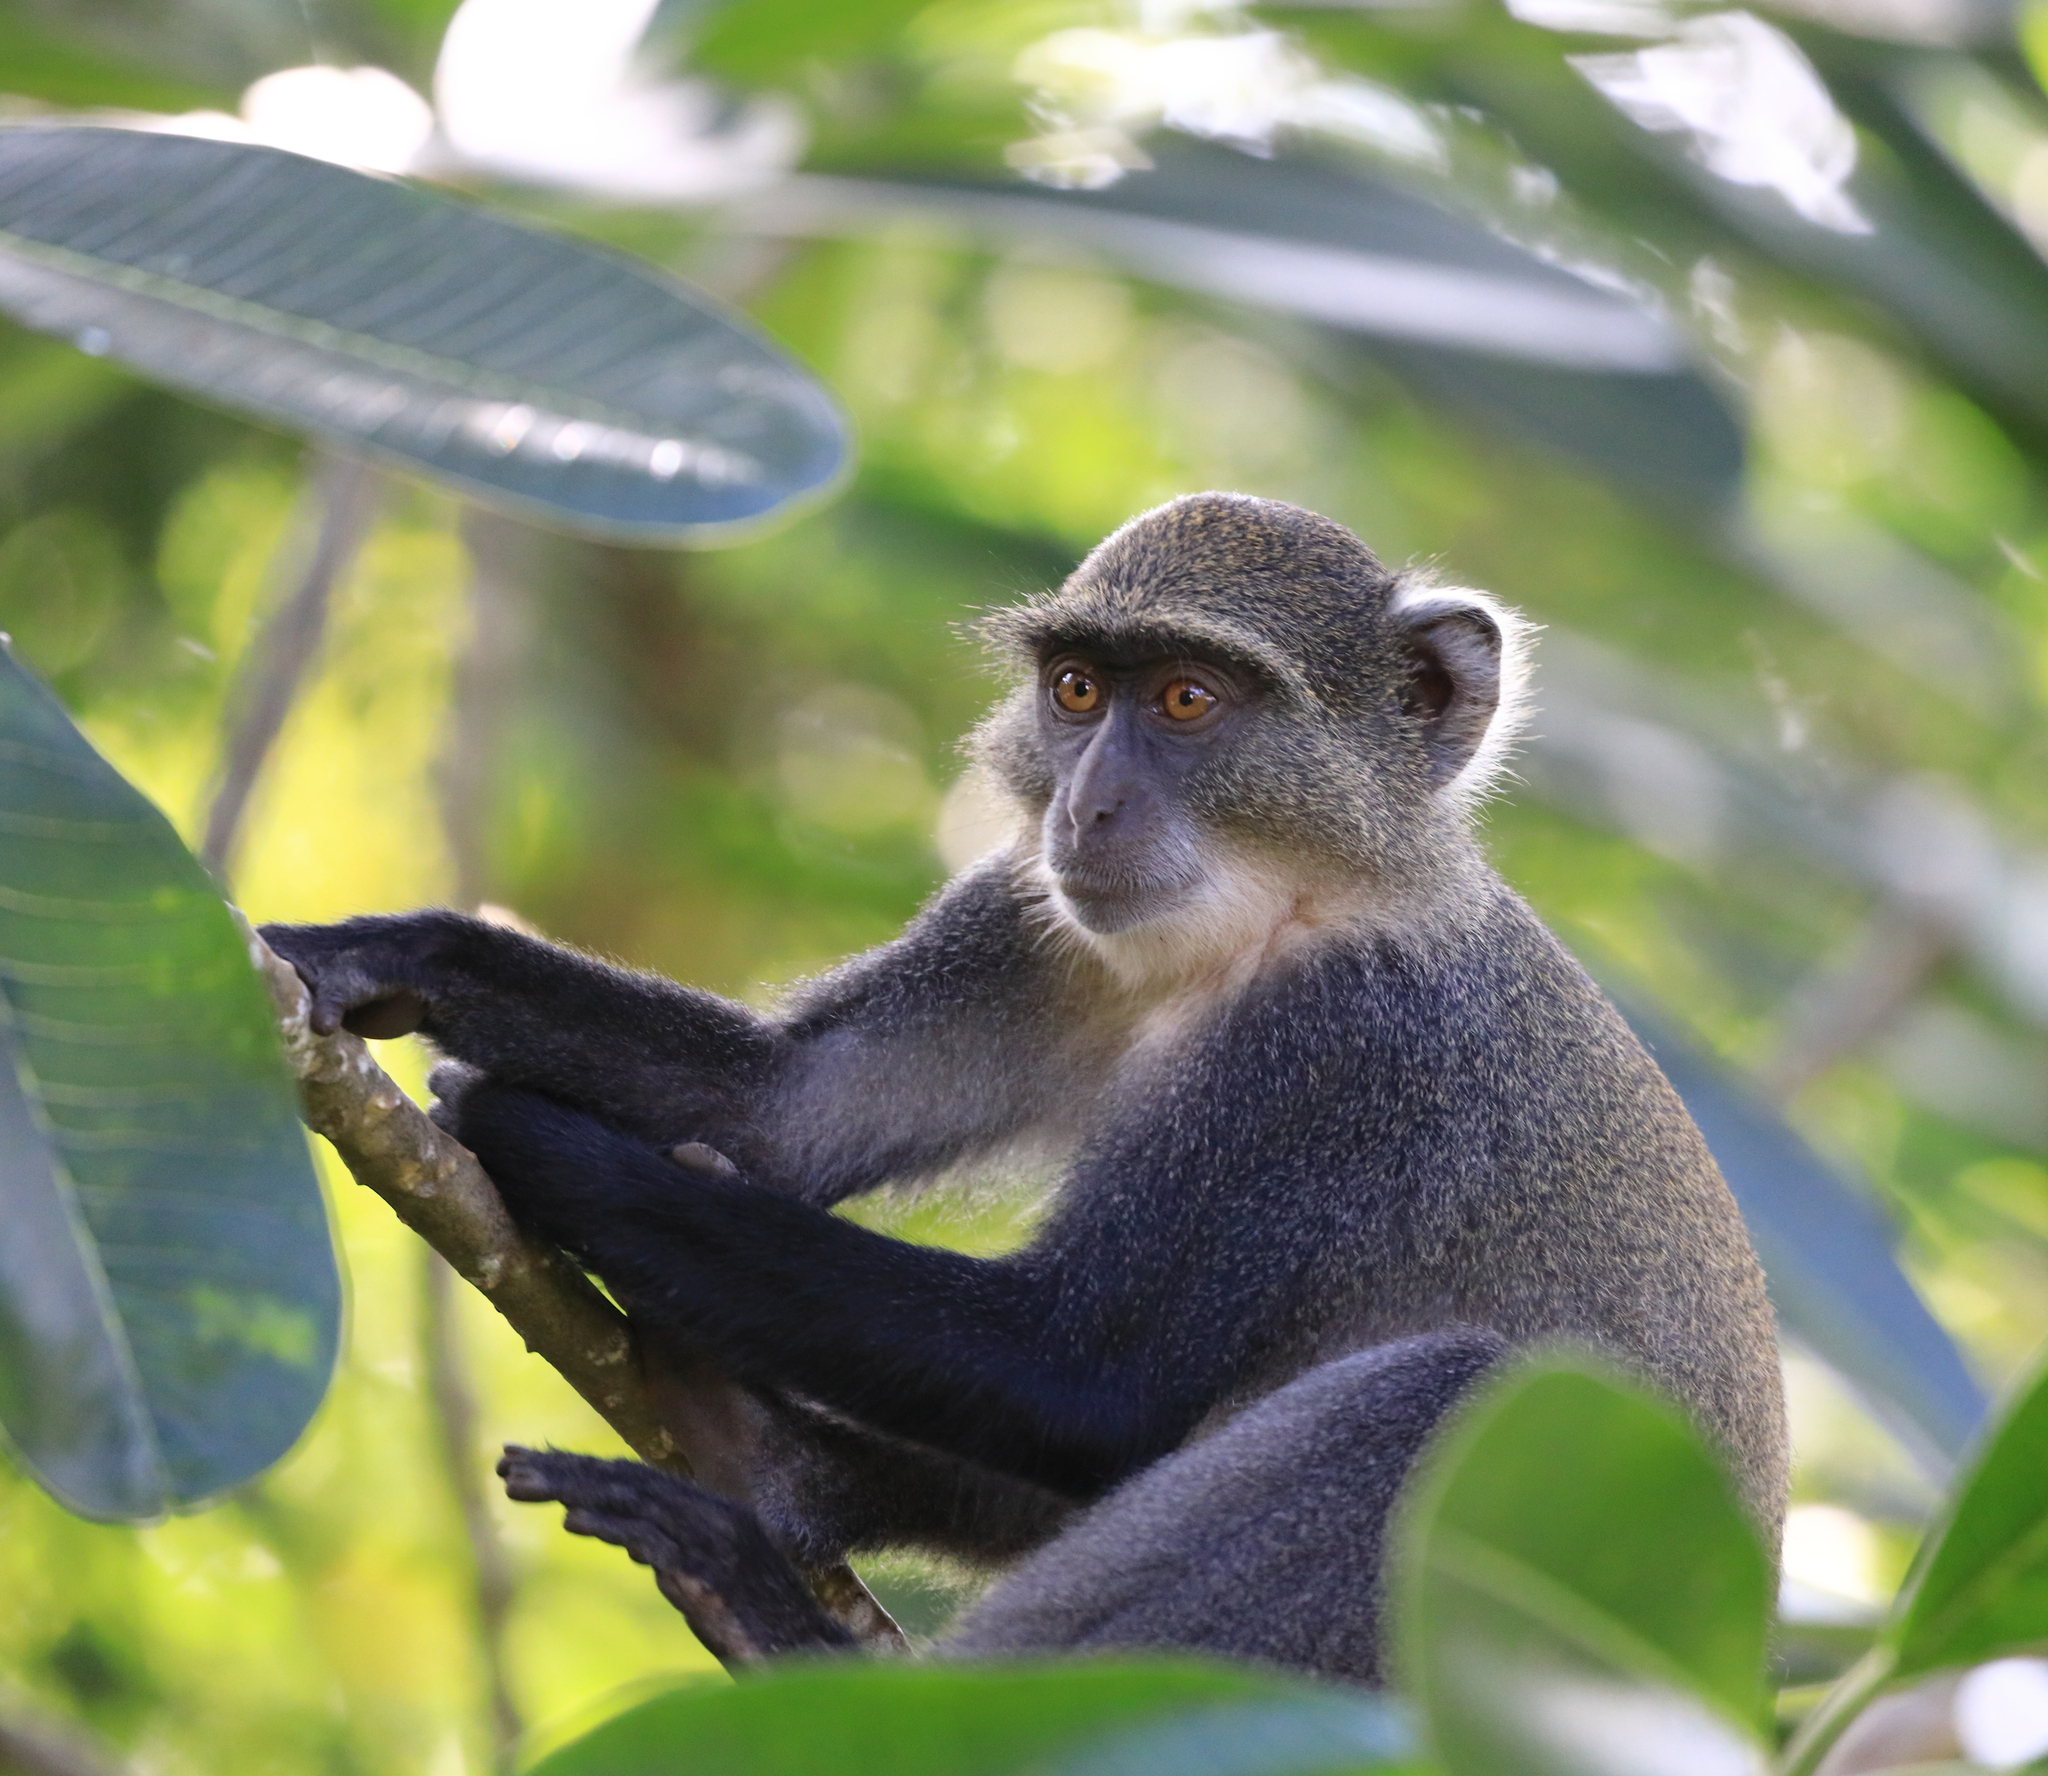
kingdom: Animalia
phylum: Chordata
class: Mammalia
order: Primates
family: Cercopithecidae
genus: Cercopithecus
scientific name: Cercopithecus mitis
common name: Blue monkey
